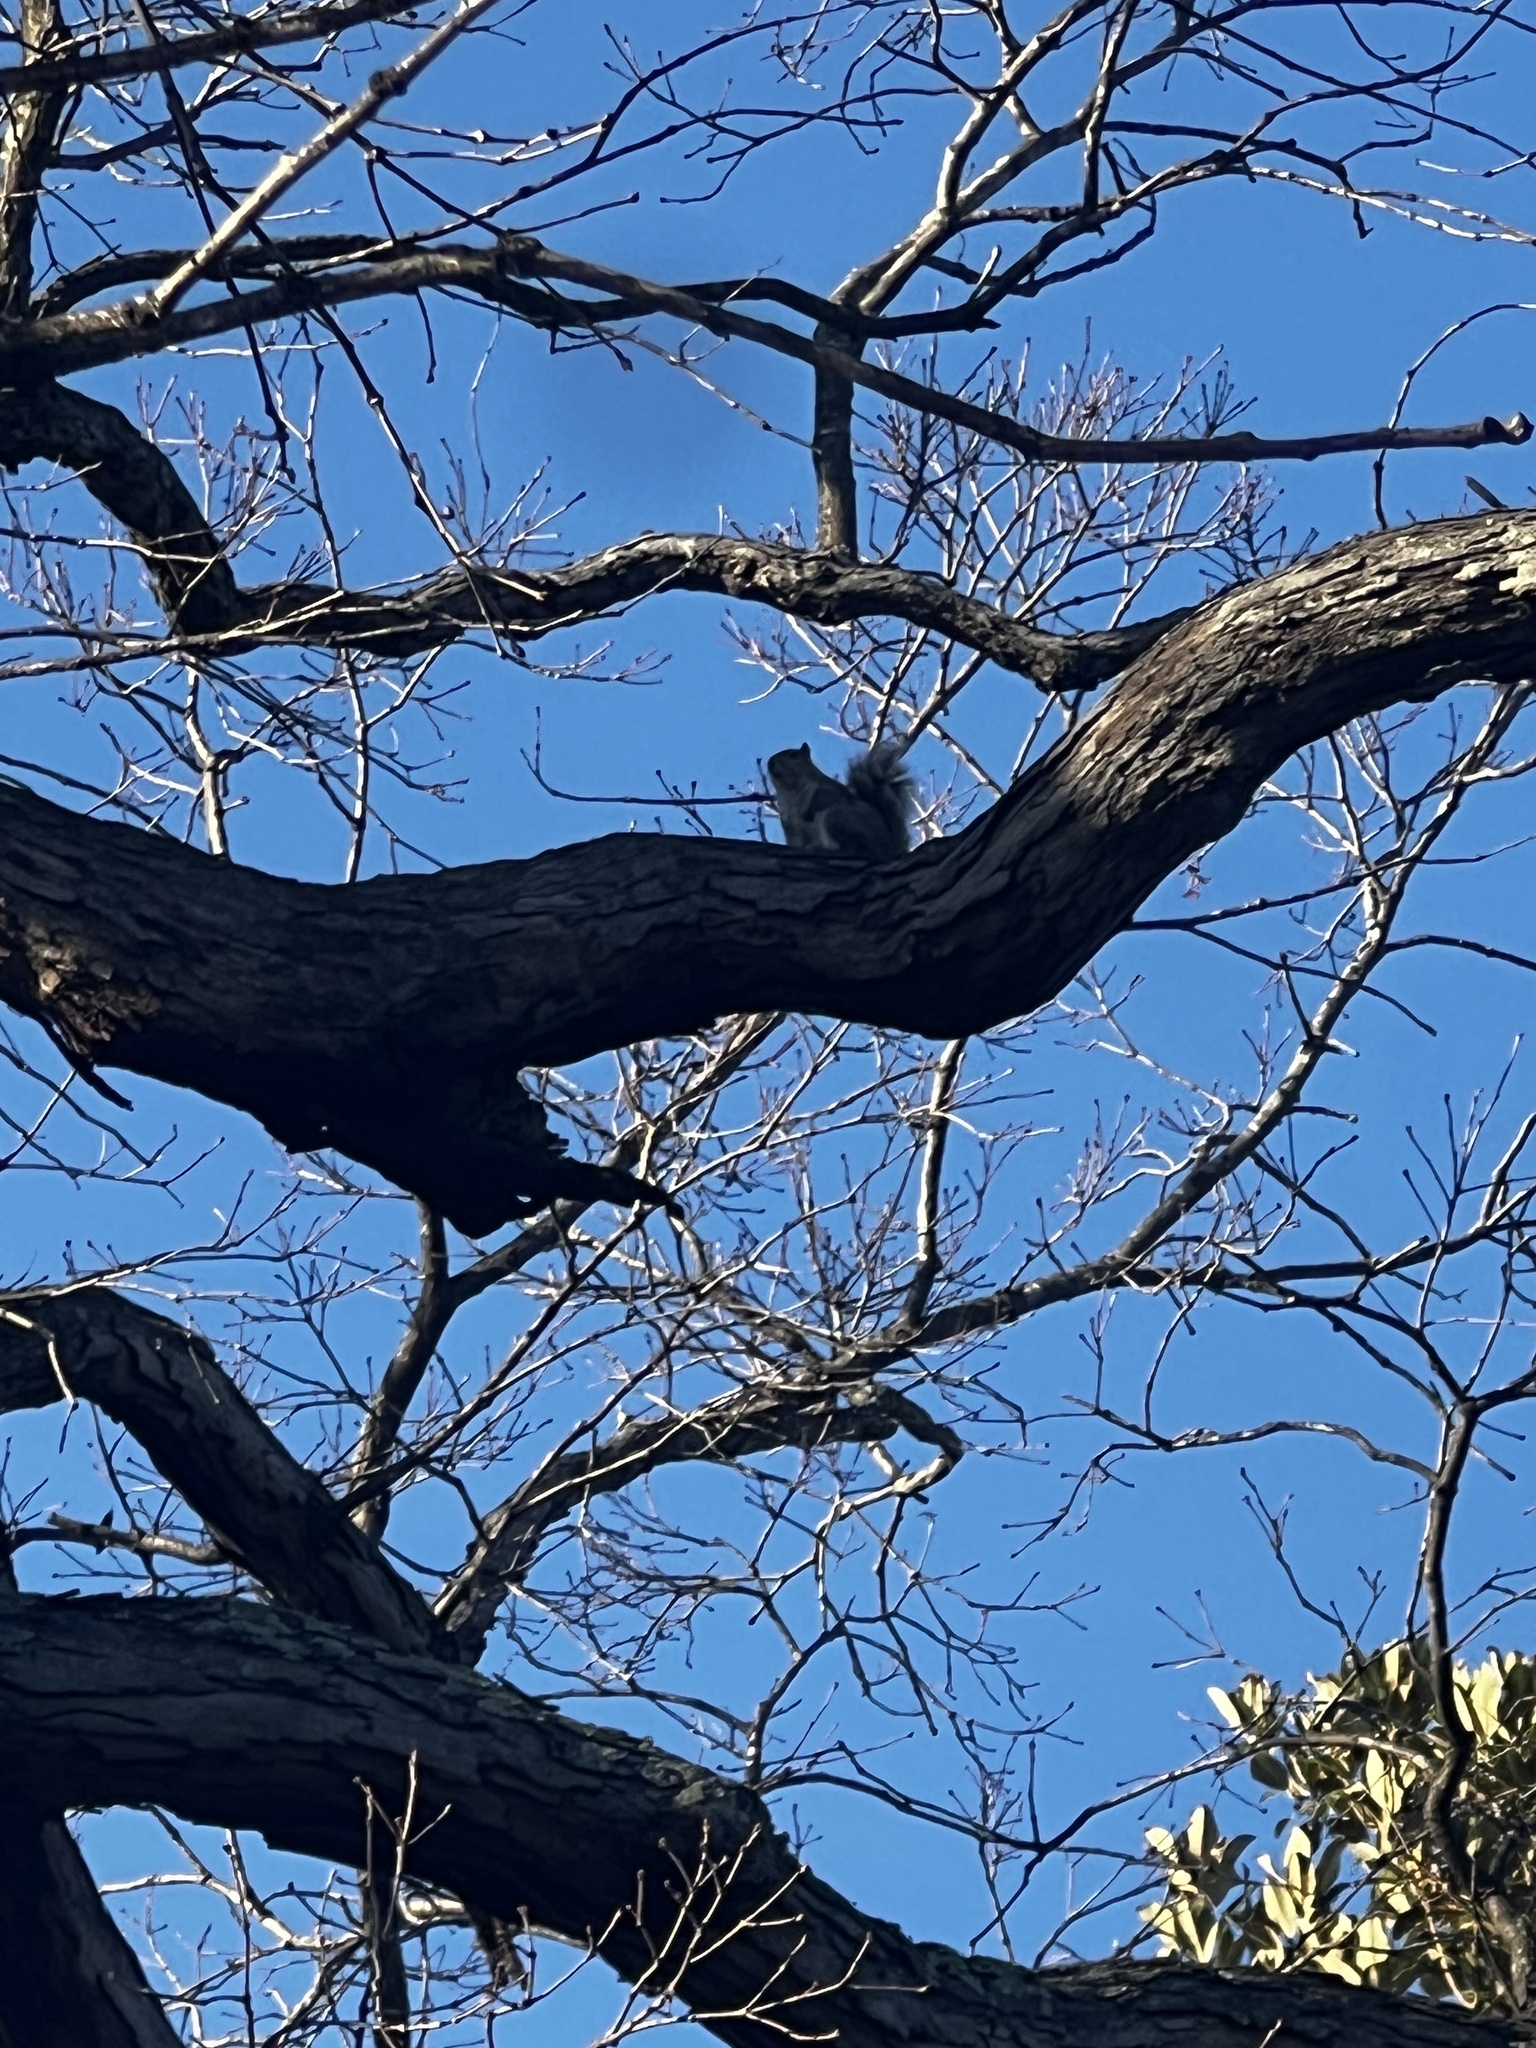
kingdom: Animalia
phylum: Chordata
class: Mammalia
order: Rodentia
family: Sciuridae
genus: Sciurus
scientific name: Sciurus carolinensis
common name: Eastern gray squirrel
